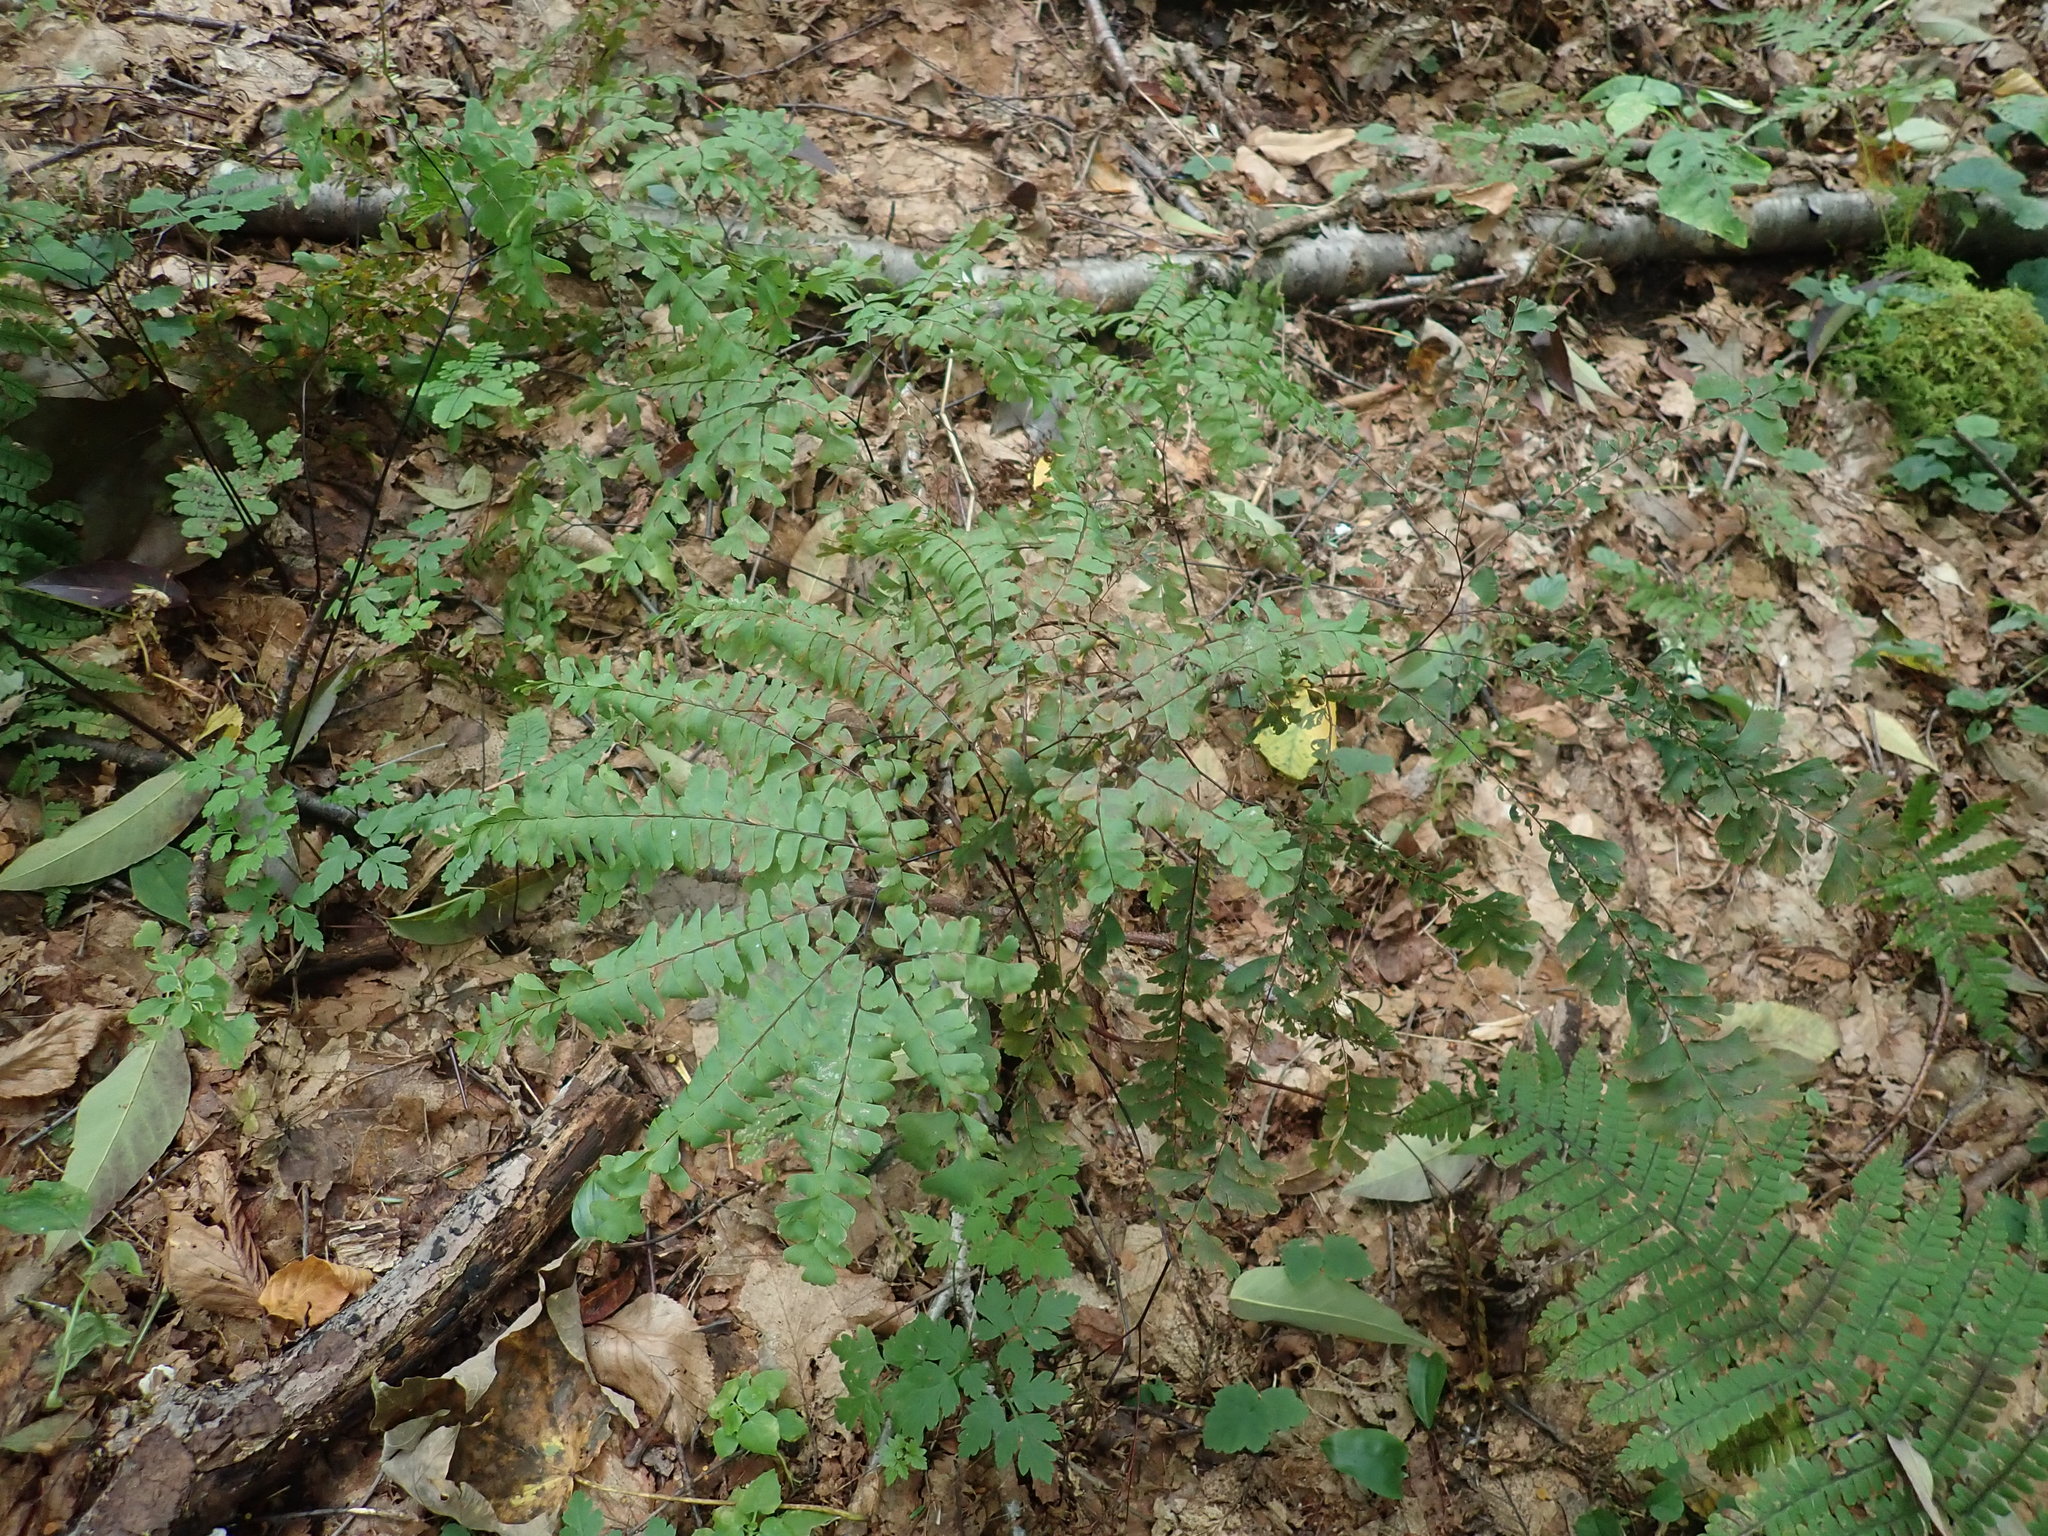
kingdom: Plantae
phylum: Tracheophyta
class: Polypodiopsida
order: Polypodiales
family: Pteridaceae
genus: Adiantum
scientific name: Adiantum pedatum
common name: Five-finger fern
